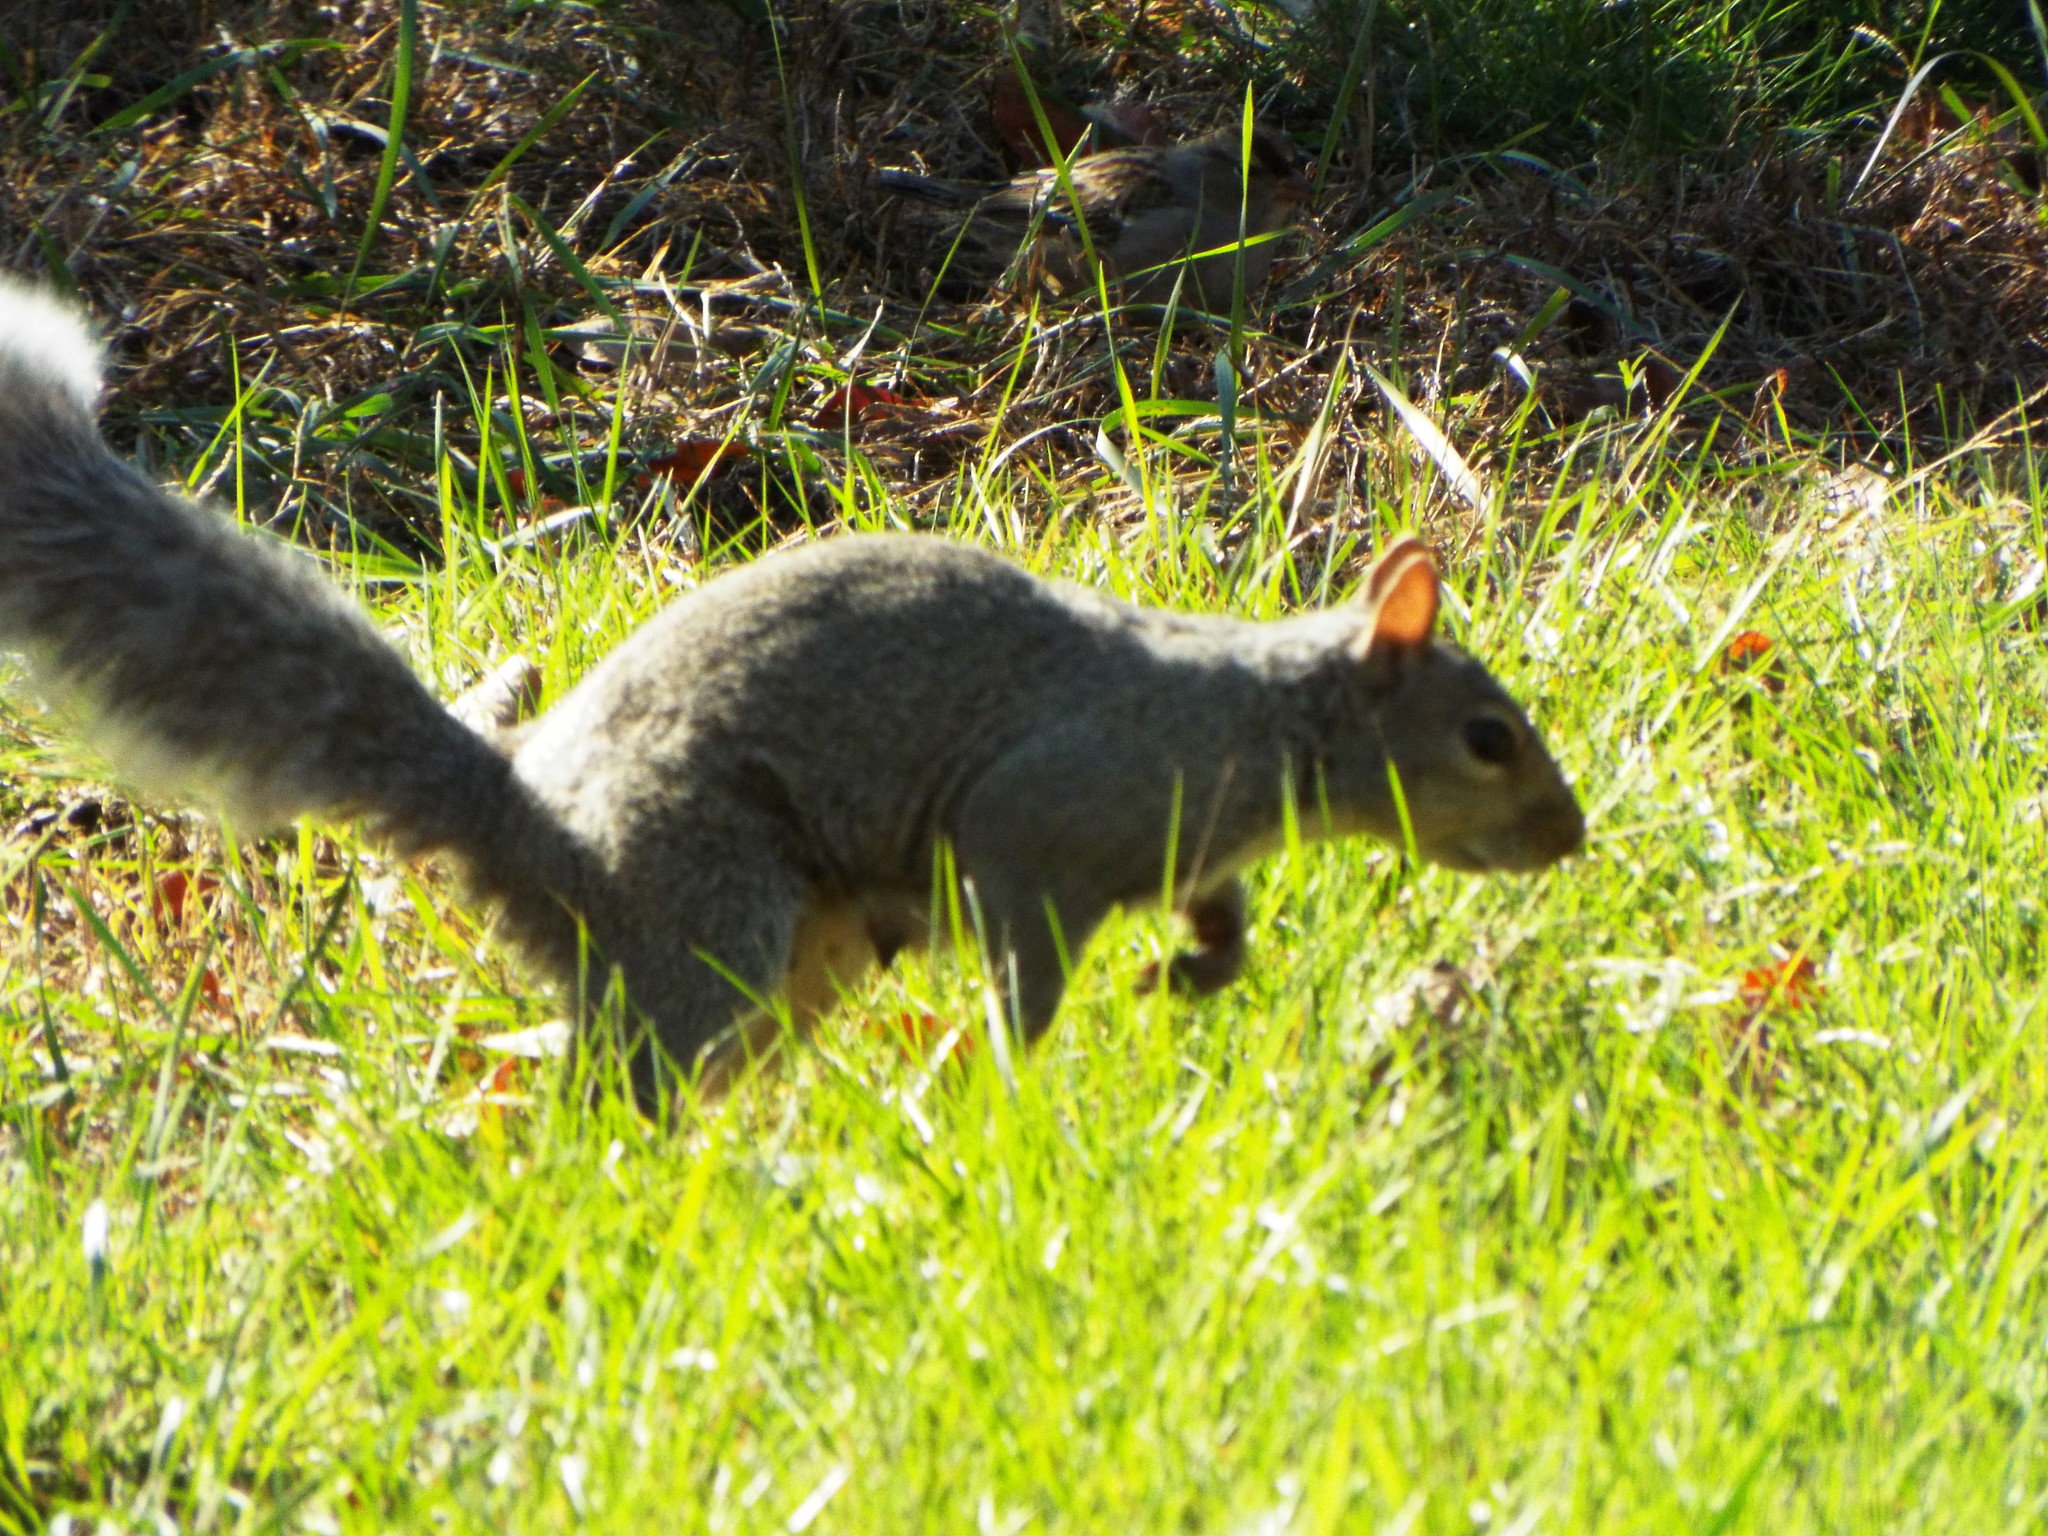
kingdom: Animalia
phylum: Chordata
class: Mammalia
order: Rodentia
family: Sciuridae
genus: Sciurus
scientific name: Sciurus carolinensis
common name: Eastern gray squirrel
